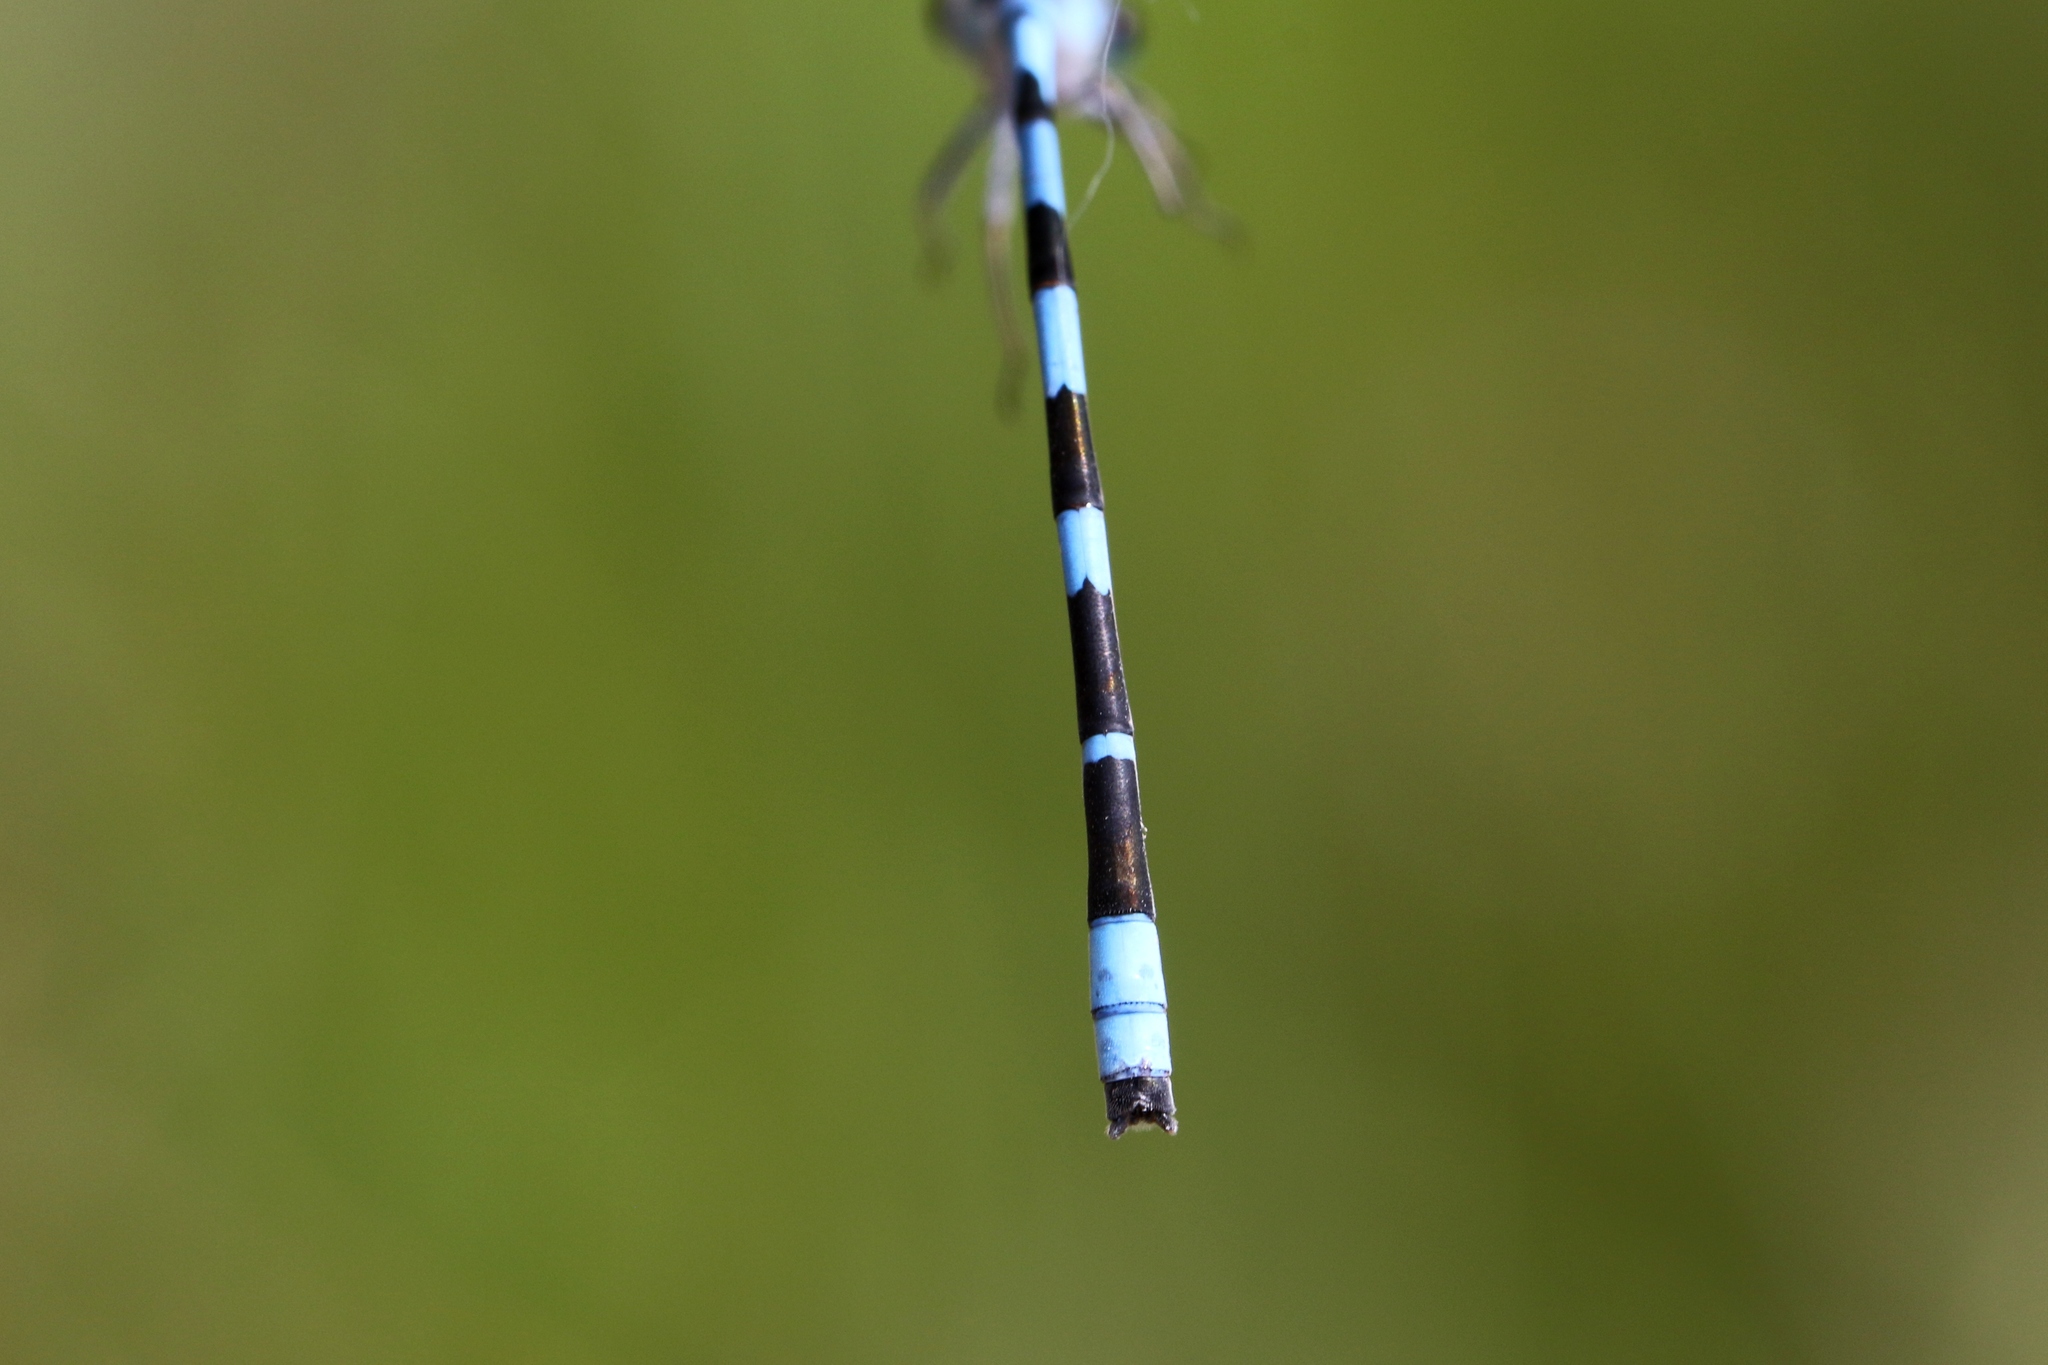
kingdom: Animalia
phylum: Arthropoda
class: Insecta
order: Odonata
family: Coenagrionidae
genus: Enallagma
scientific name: Enallagma carunculatum
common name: Tule bluet
